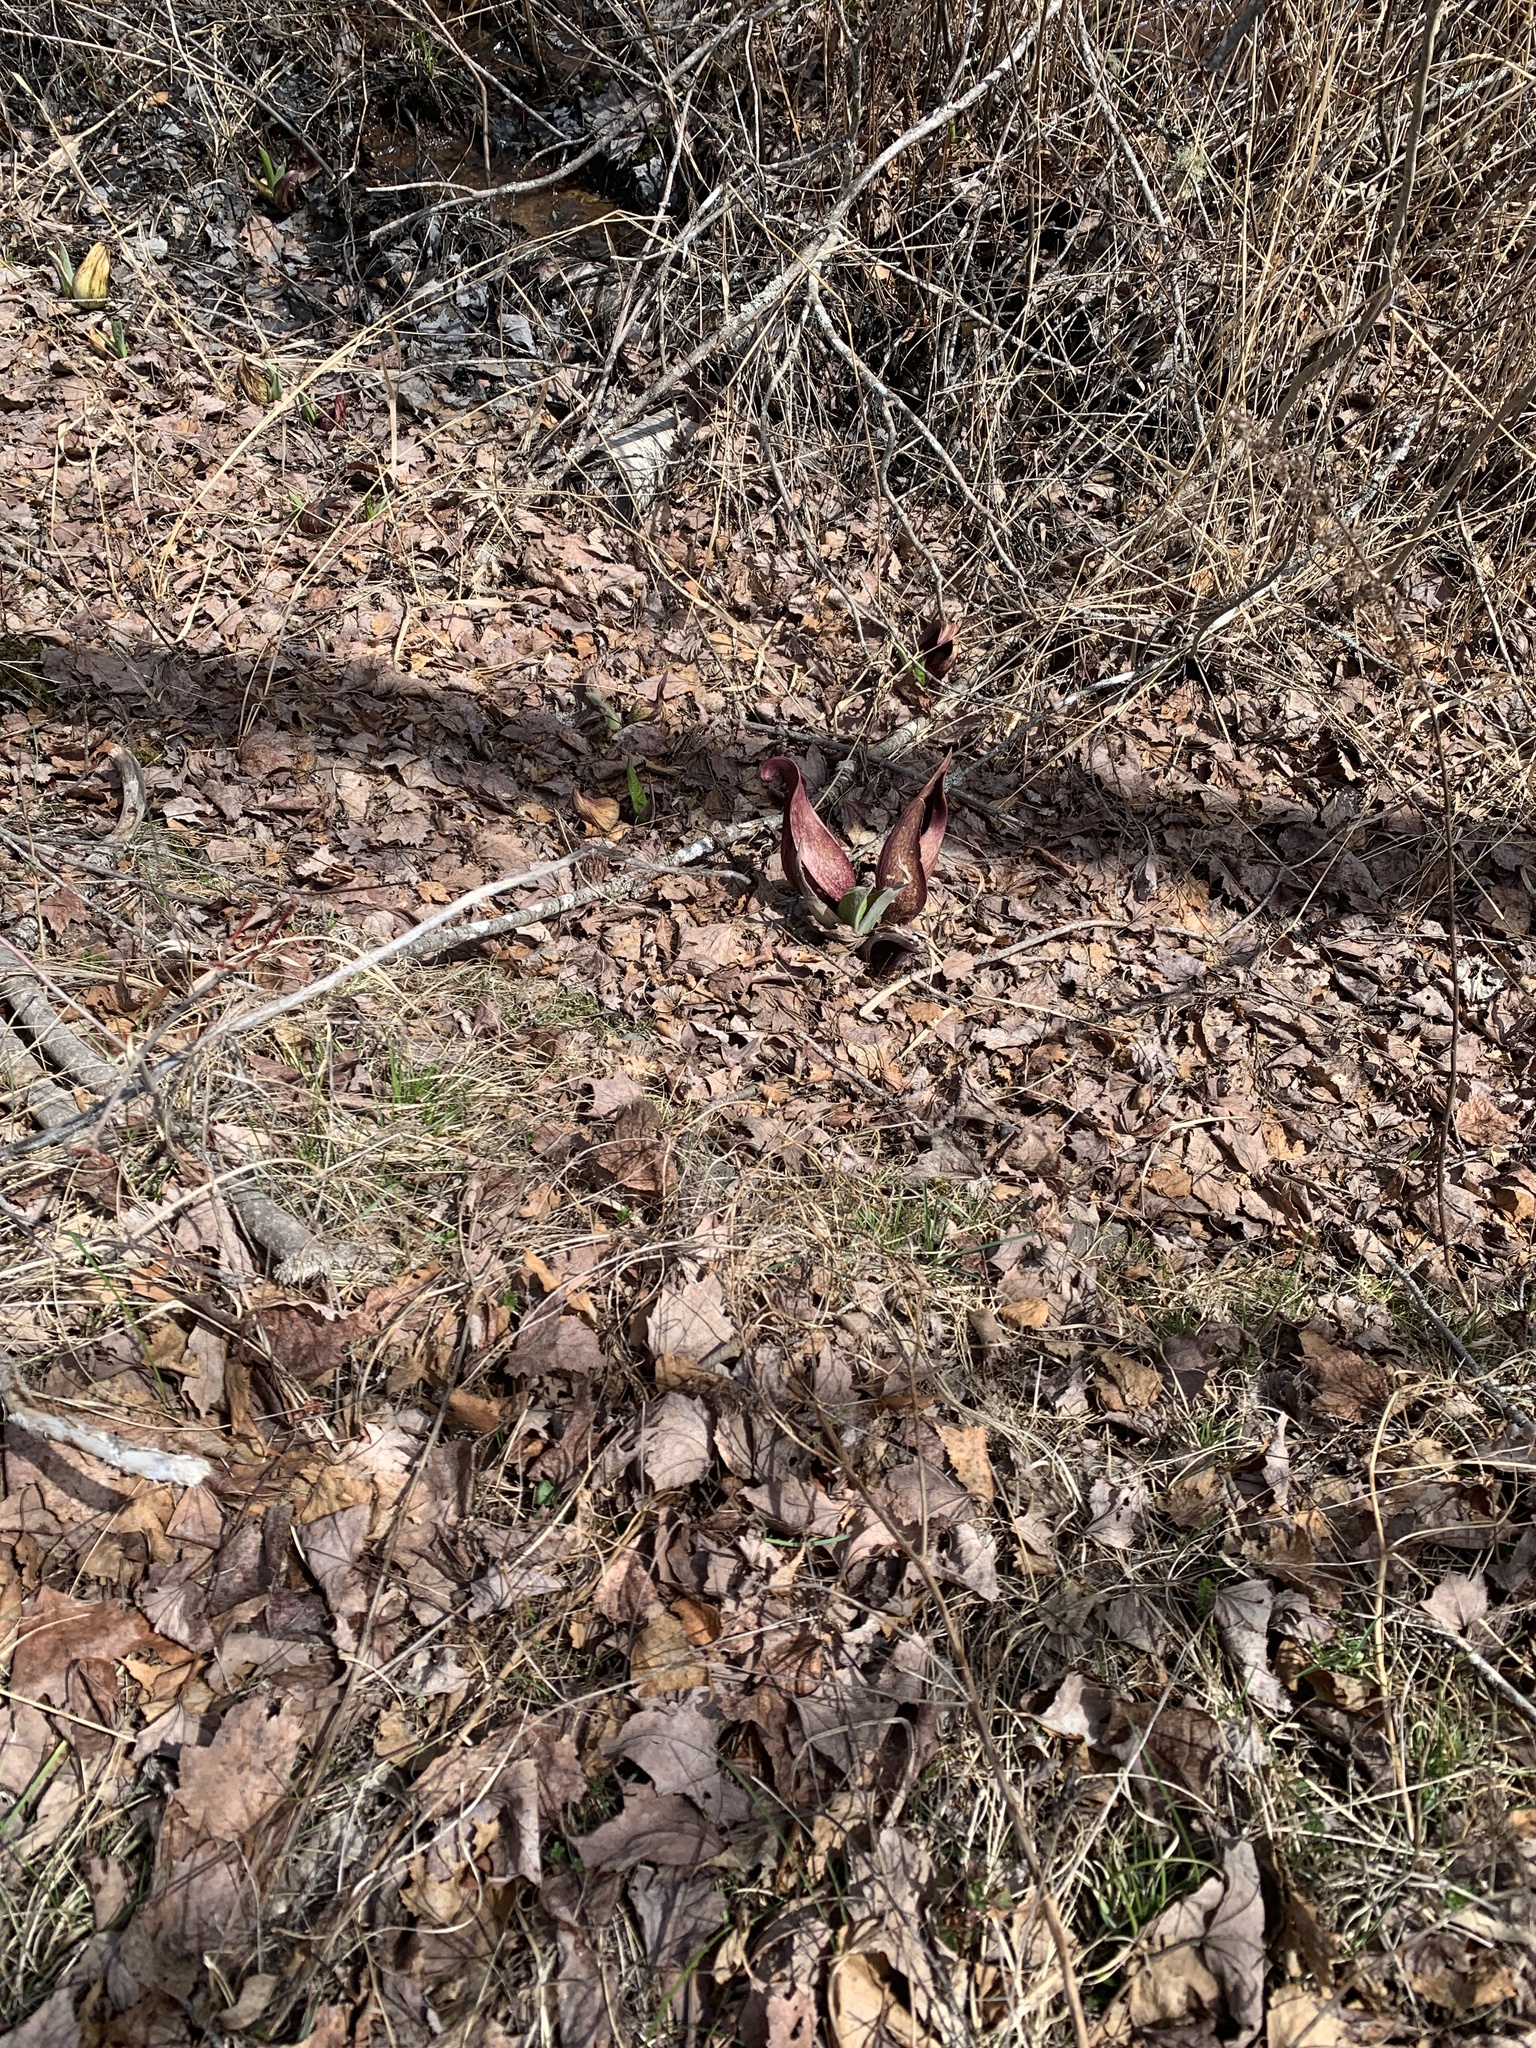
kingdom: Plantae
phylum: Tracheophyta
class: Liliopsida
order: Alismatales
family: Araceae
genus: Symplocarpus
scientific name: Symplocarpus foetidus
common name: Eastern skunk cabbage
